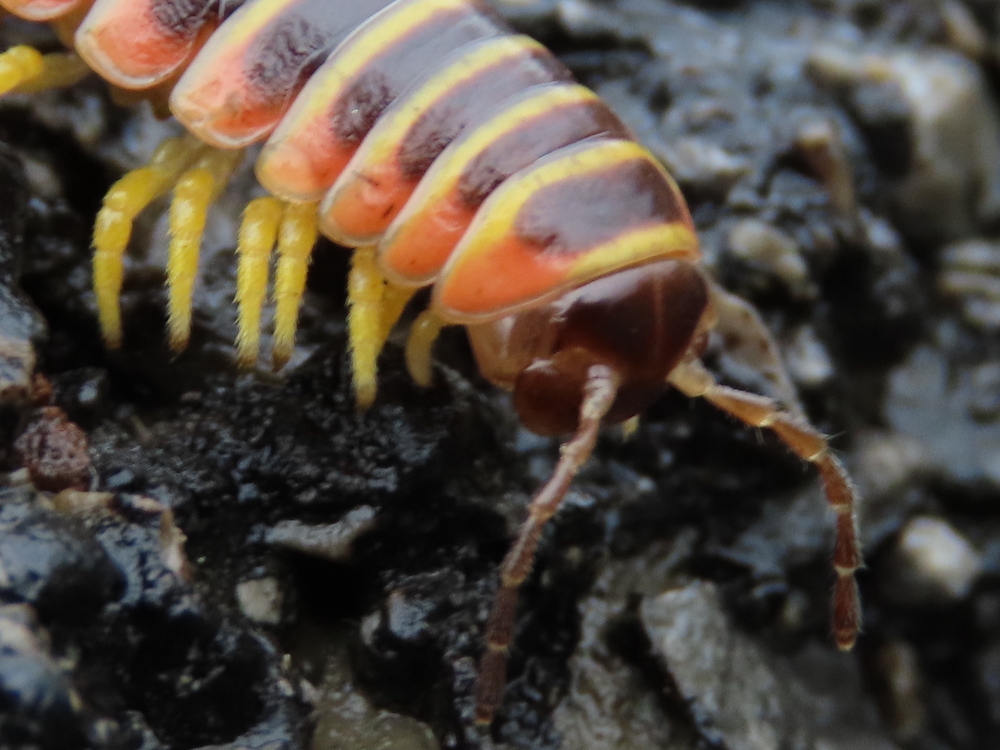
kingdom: Animalia
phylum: Arthropoda
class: Diplopoda
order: Polydesmida
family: Xystodesmidae
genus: Apheloria
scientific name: Apheloria virginiensis
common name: Black-and-gold flat millipede
